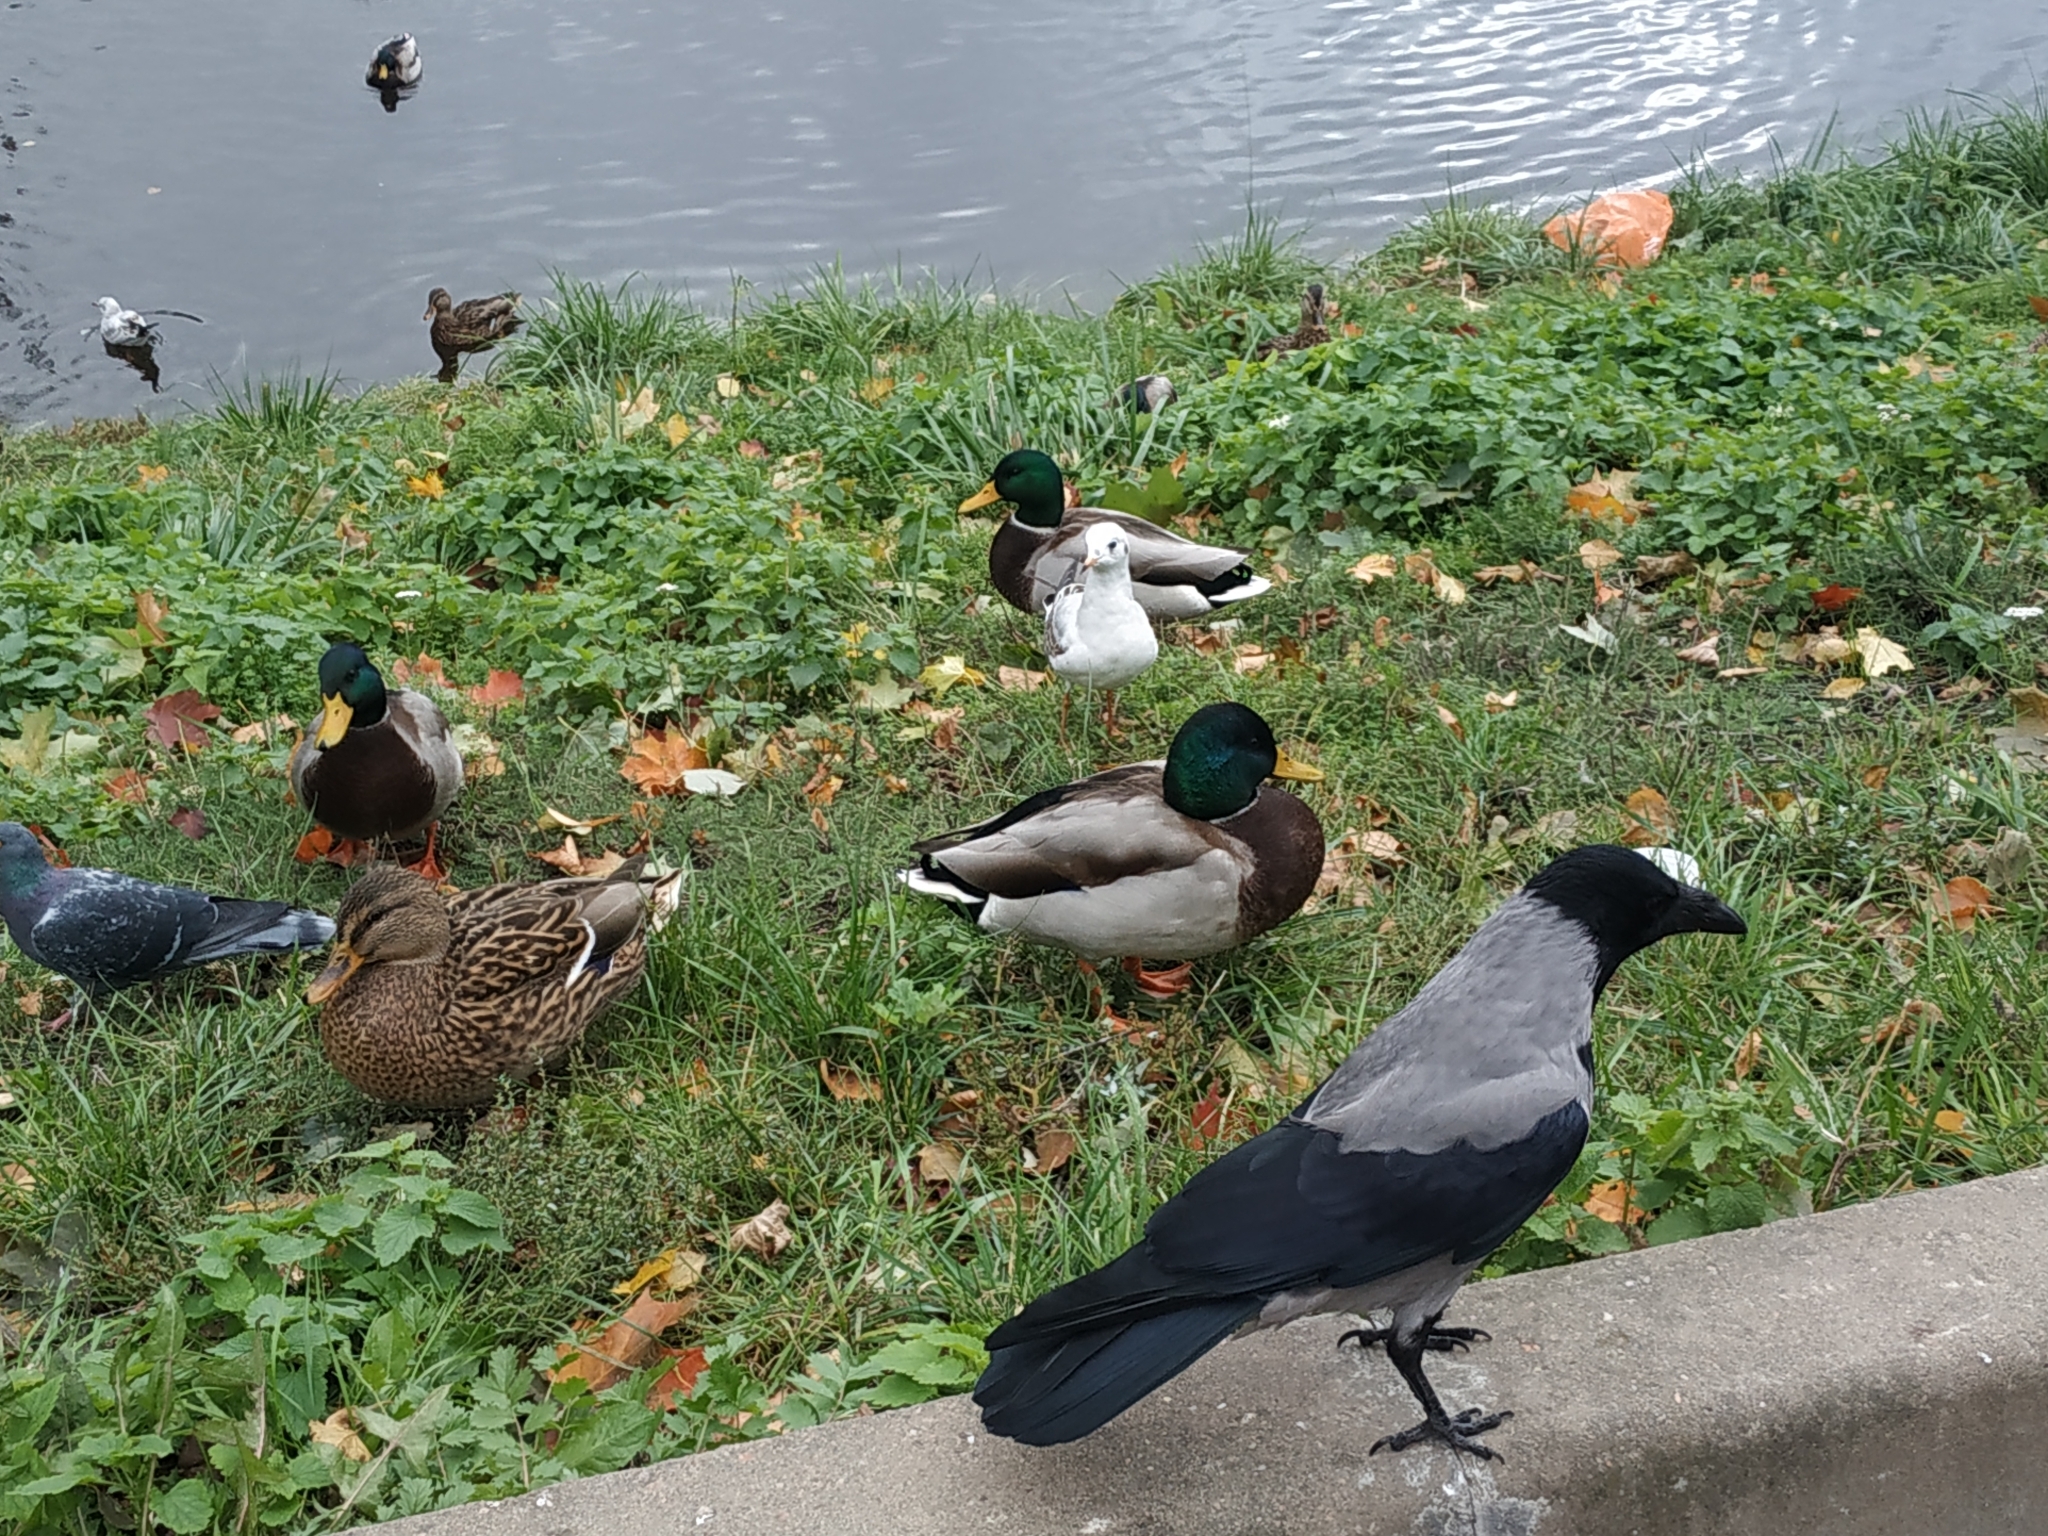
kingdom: Animalia
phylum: Chordata
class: Aves
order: Anseriformes
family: Anatidae
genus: Anas
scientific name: Anas platyrhynchos
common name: Mallard
